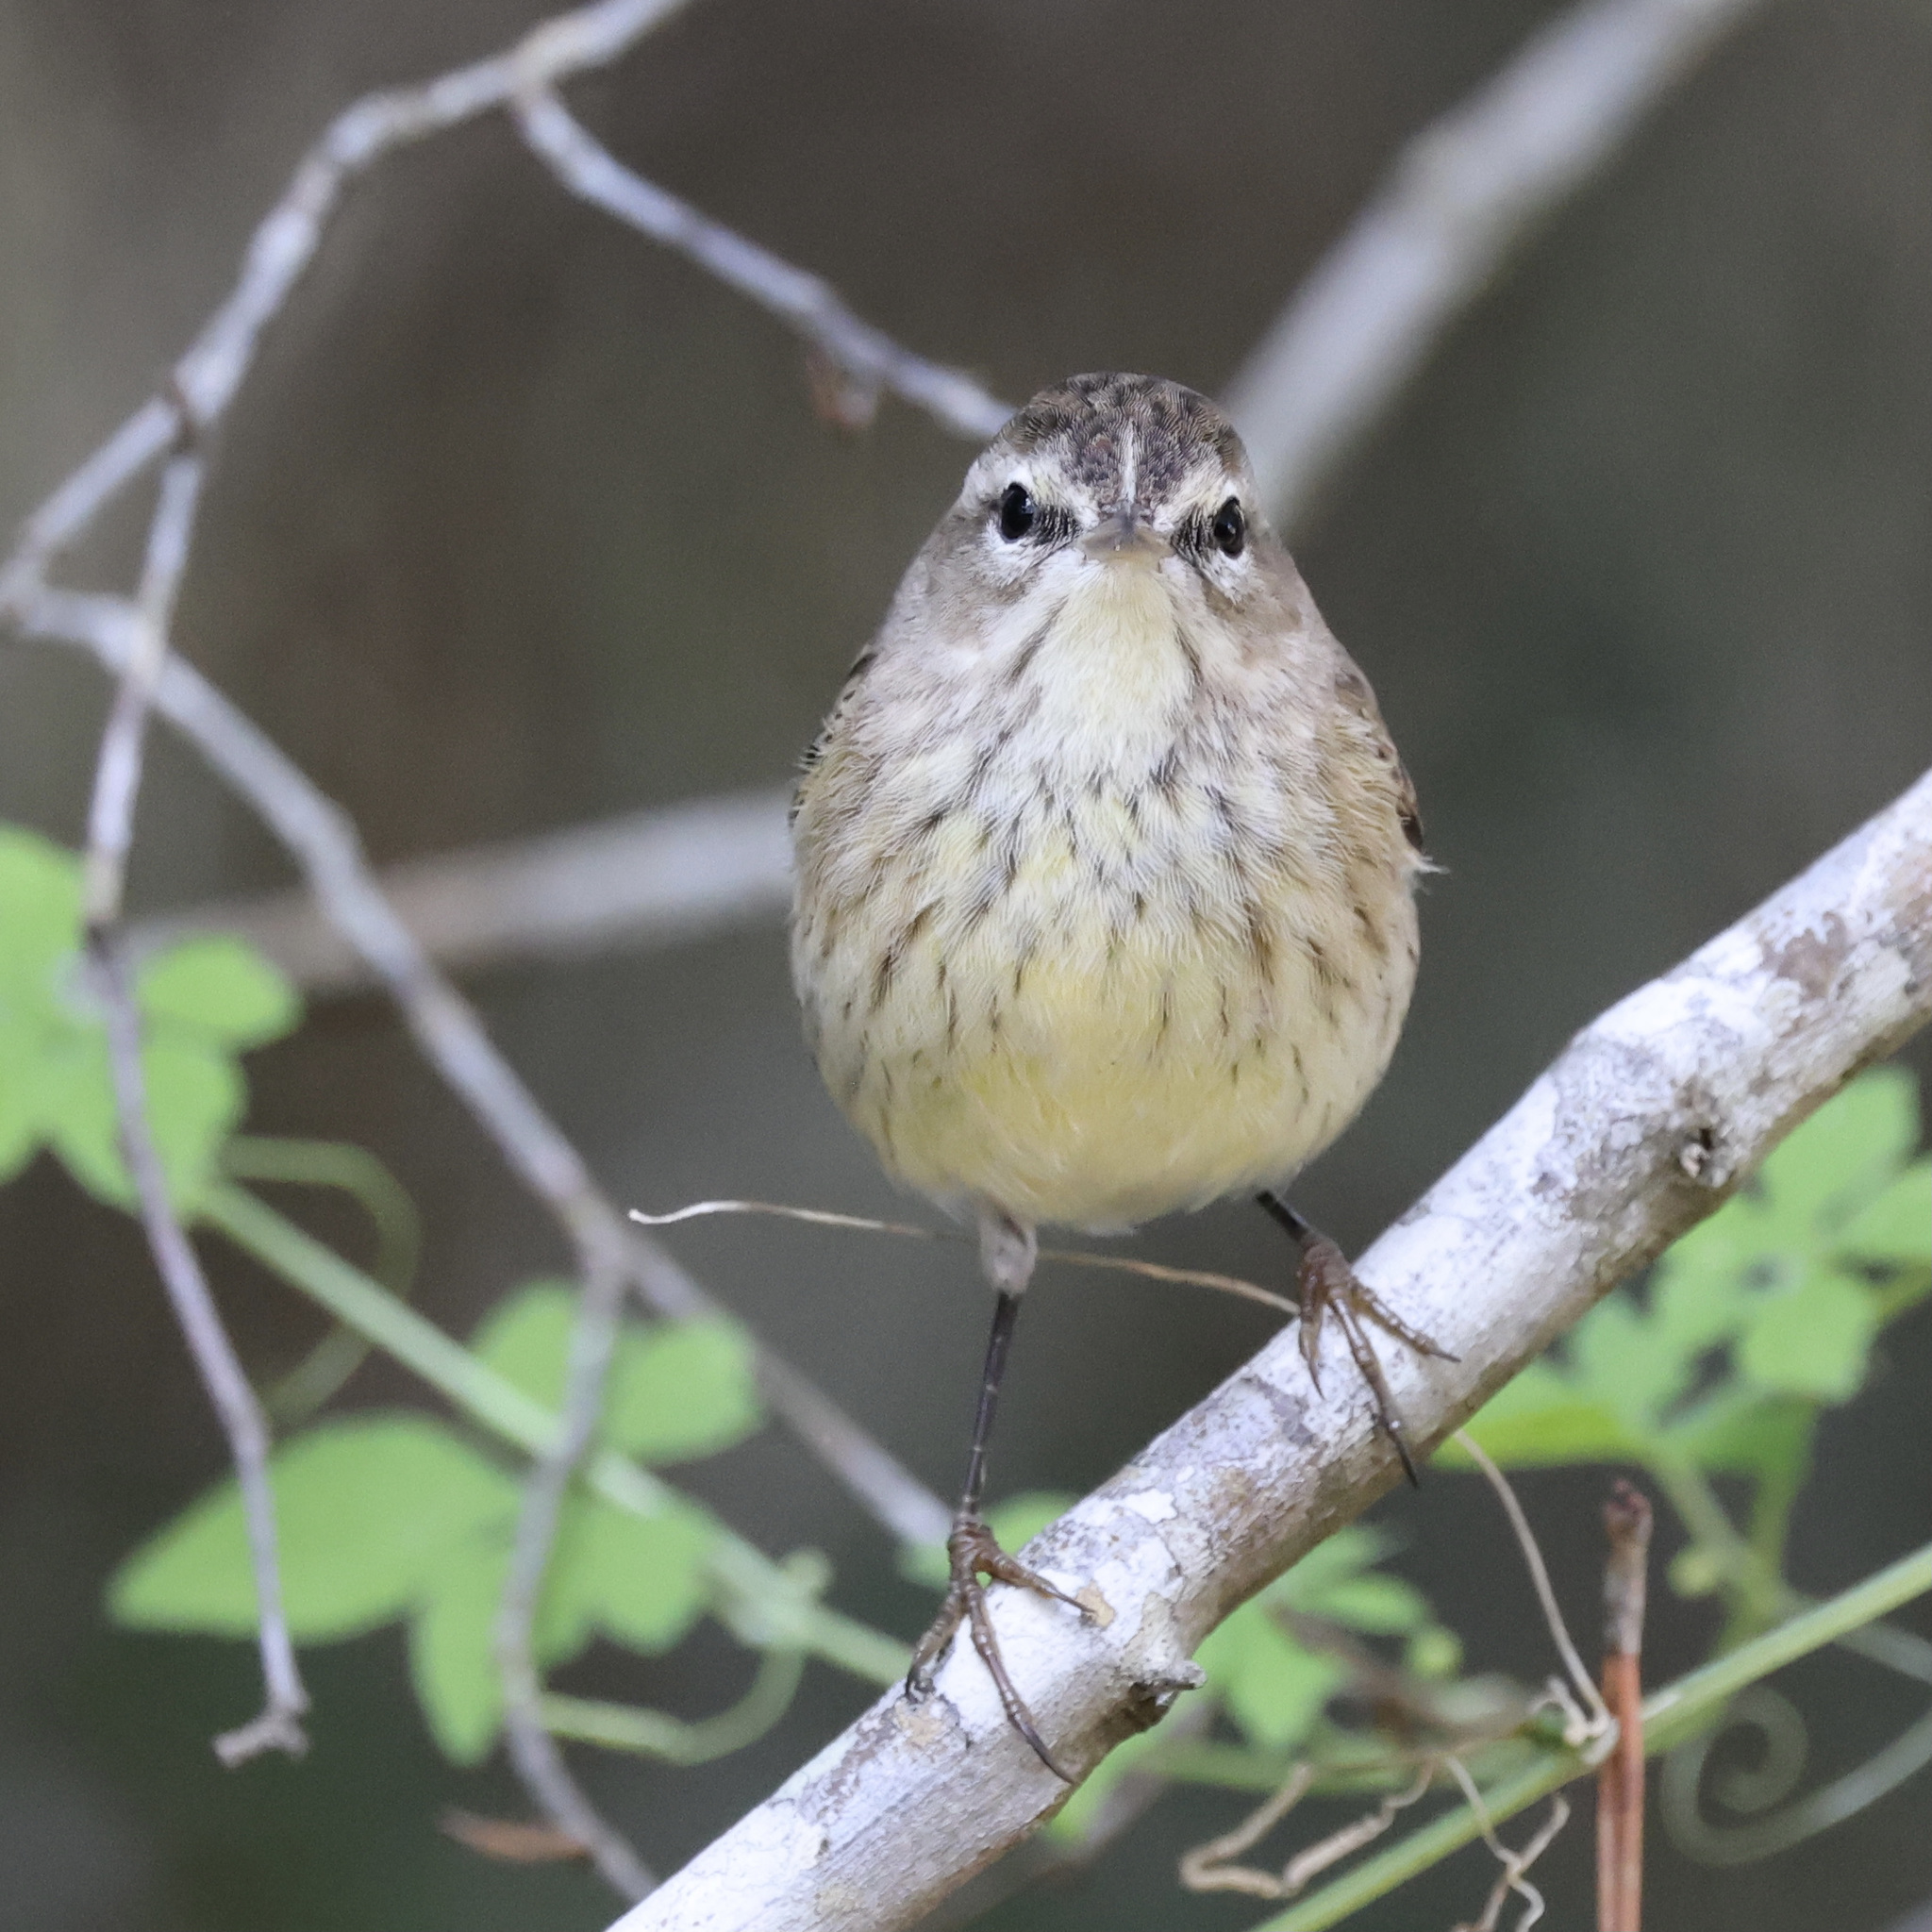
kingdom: Animalia
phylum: Chordata
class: Aves
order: Passeriformes
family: Parulidae
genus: Setophaga
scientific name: Setophaga palmarum
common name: Palm warbler
